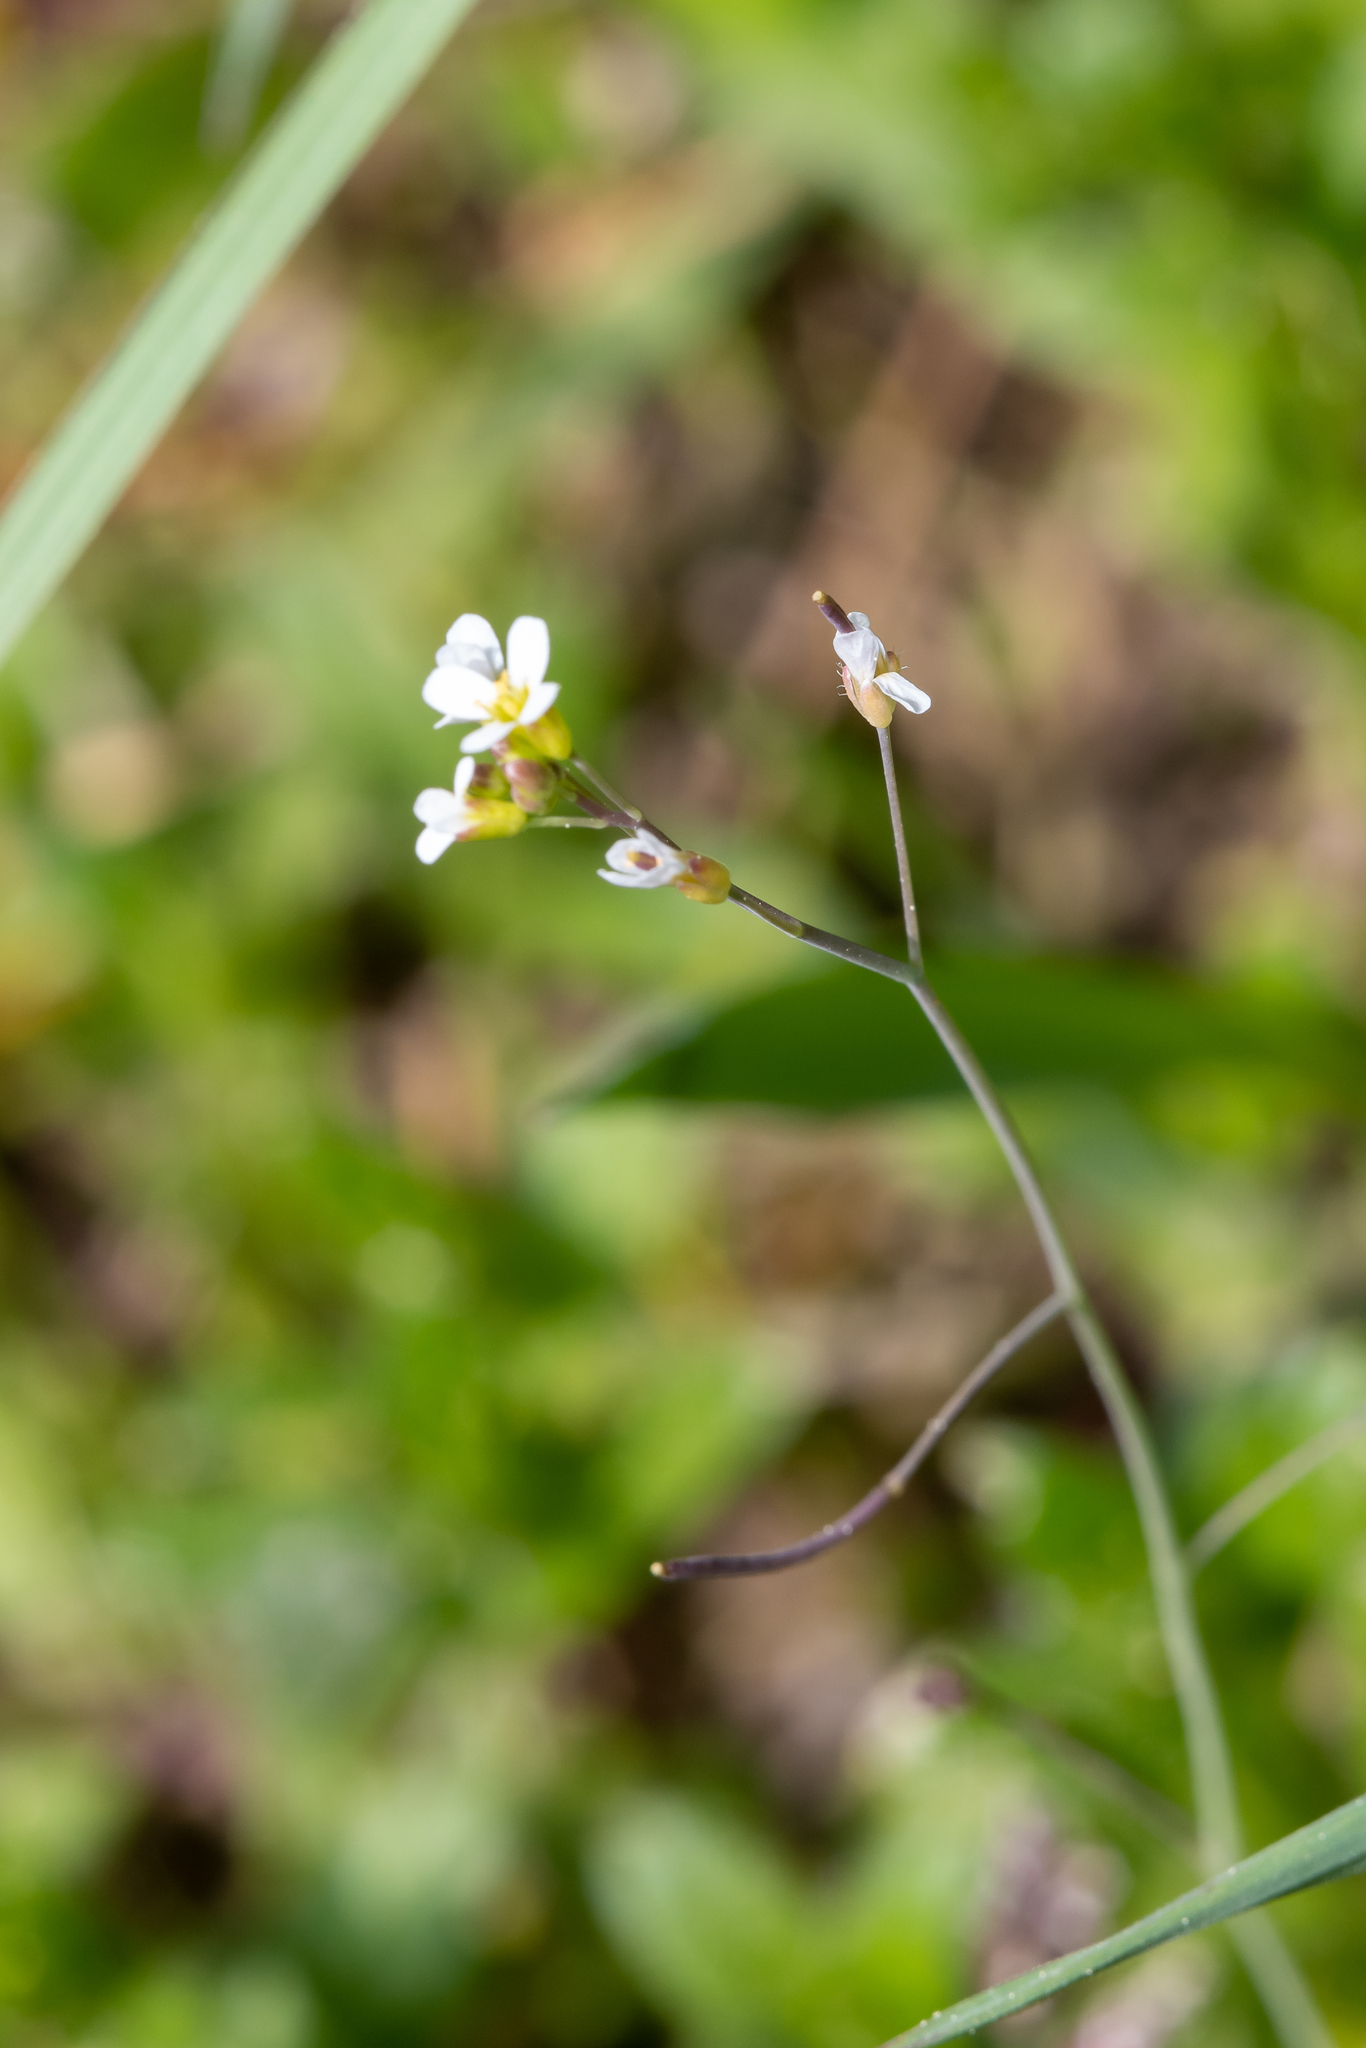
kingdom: Plantae
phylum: Tracheophyta
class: Magnoliopsida
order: Brassicales
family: Brassicaceae
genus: Arabidopsis
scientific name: Arabidopsis thaliana
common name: Thale cress
